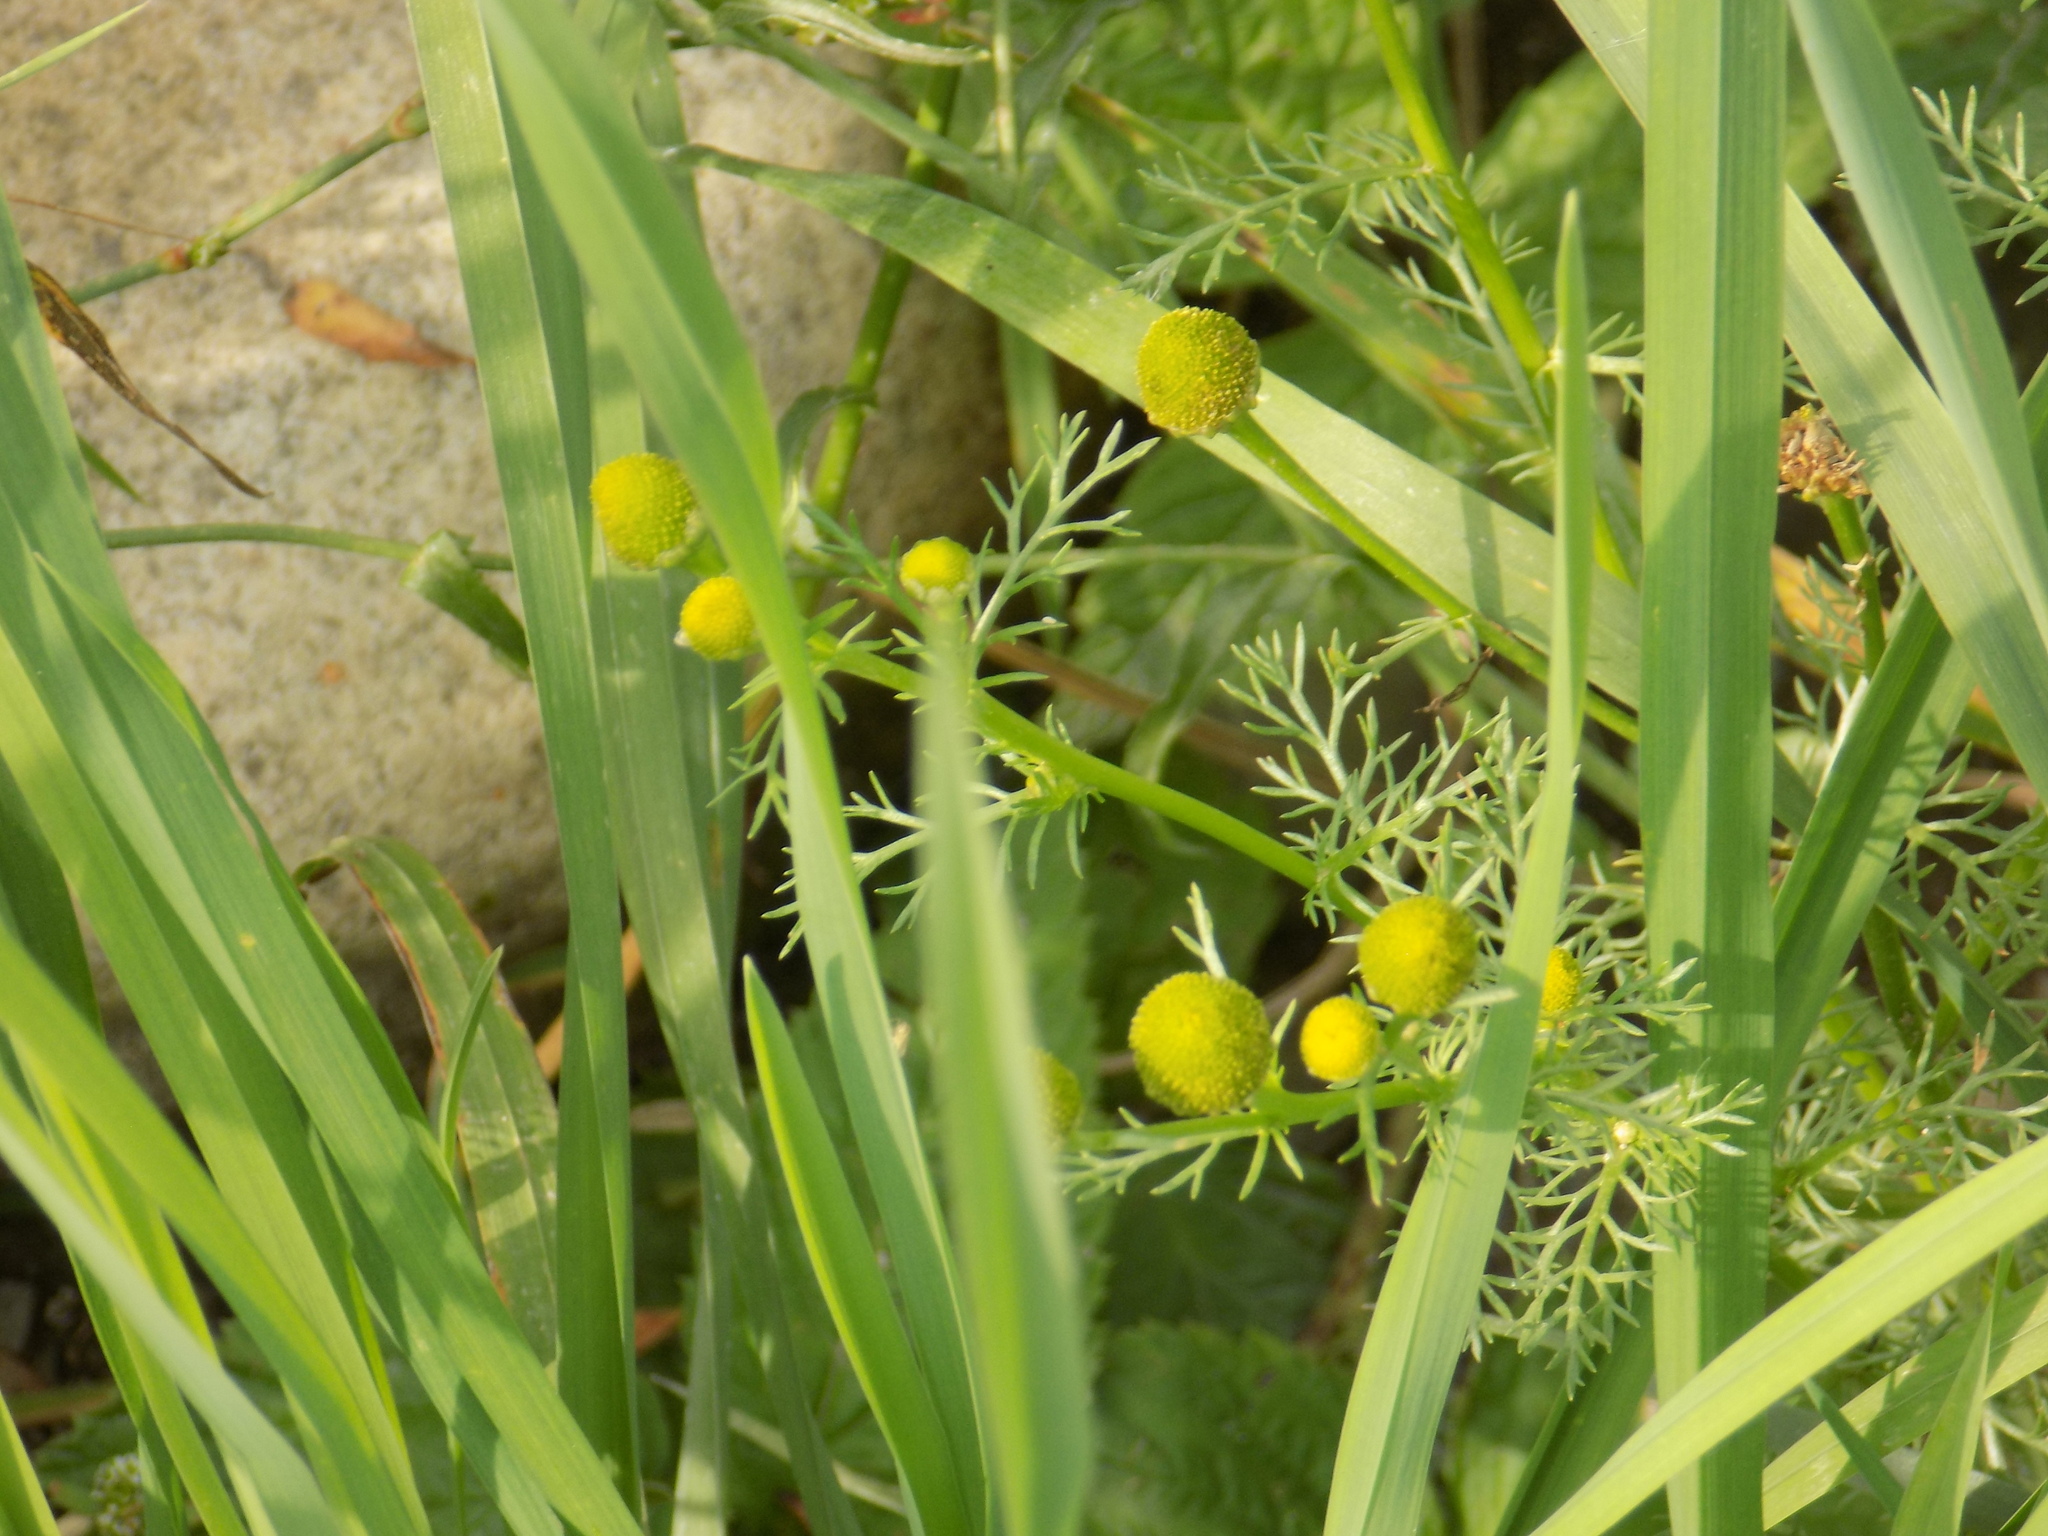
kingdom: Plantae
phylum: Tracheophyta
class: Magnoliopsida
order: Asterales
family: Asteraceae
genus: Matricaria
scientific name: Matricaria discoidea
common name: Disc mayweed
